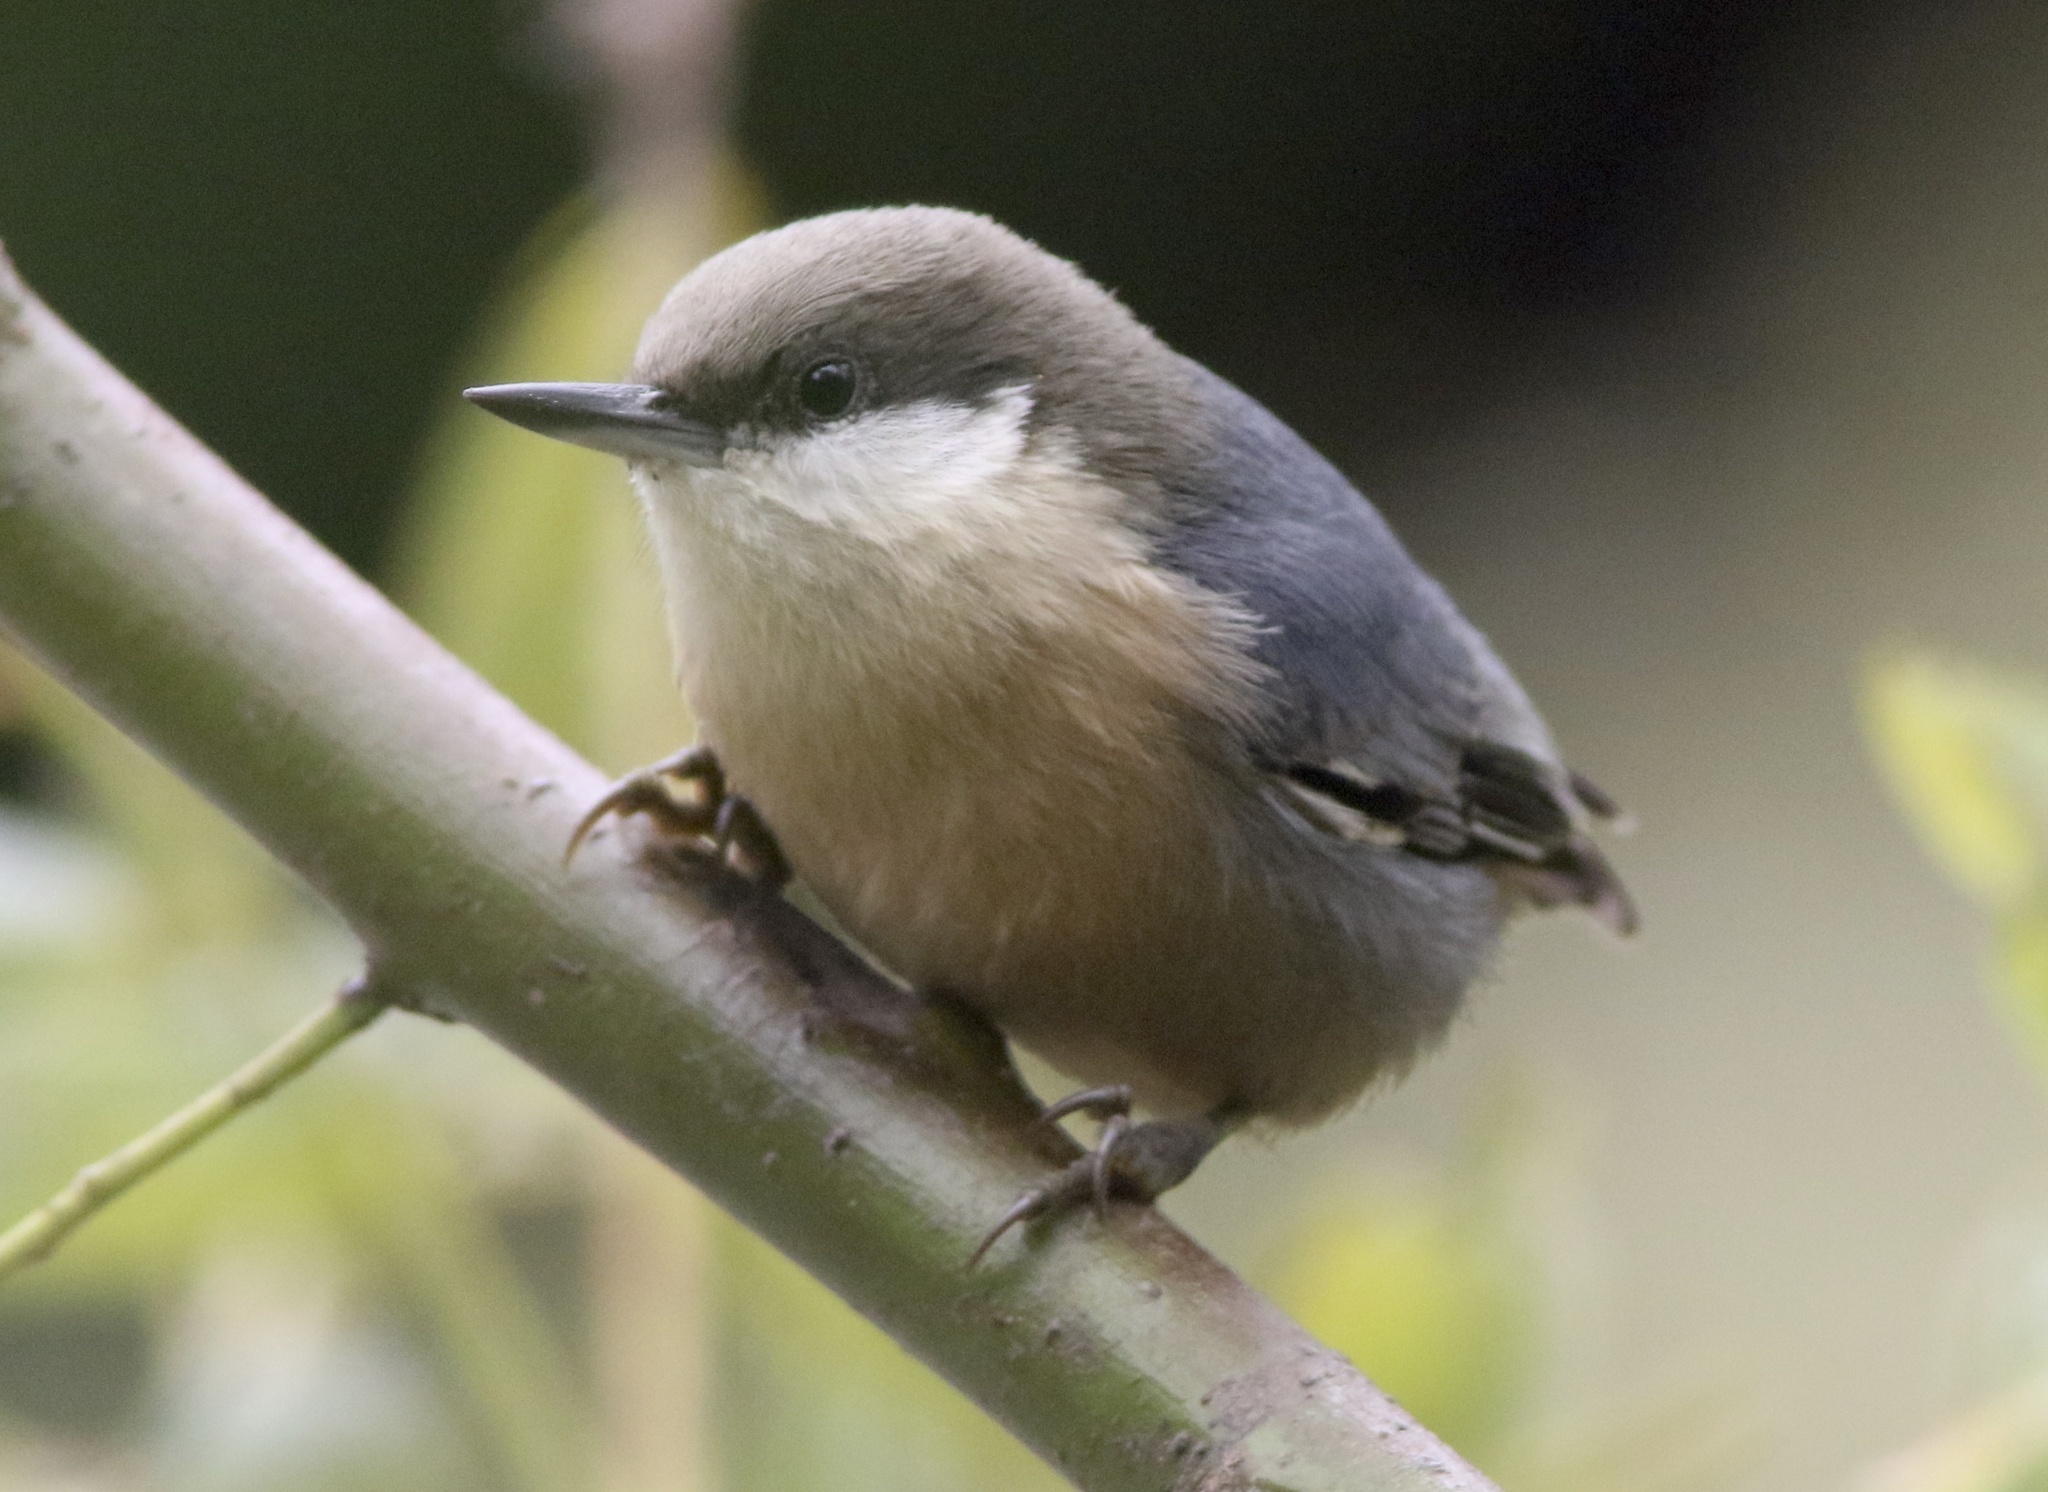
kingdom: Animalia
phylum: Chordata
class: Aves
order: Passeriformes
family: Sittidae
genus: Sitta
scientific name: Sitta pygmaea
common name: Pygmy nuthatch
